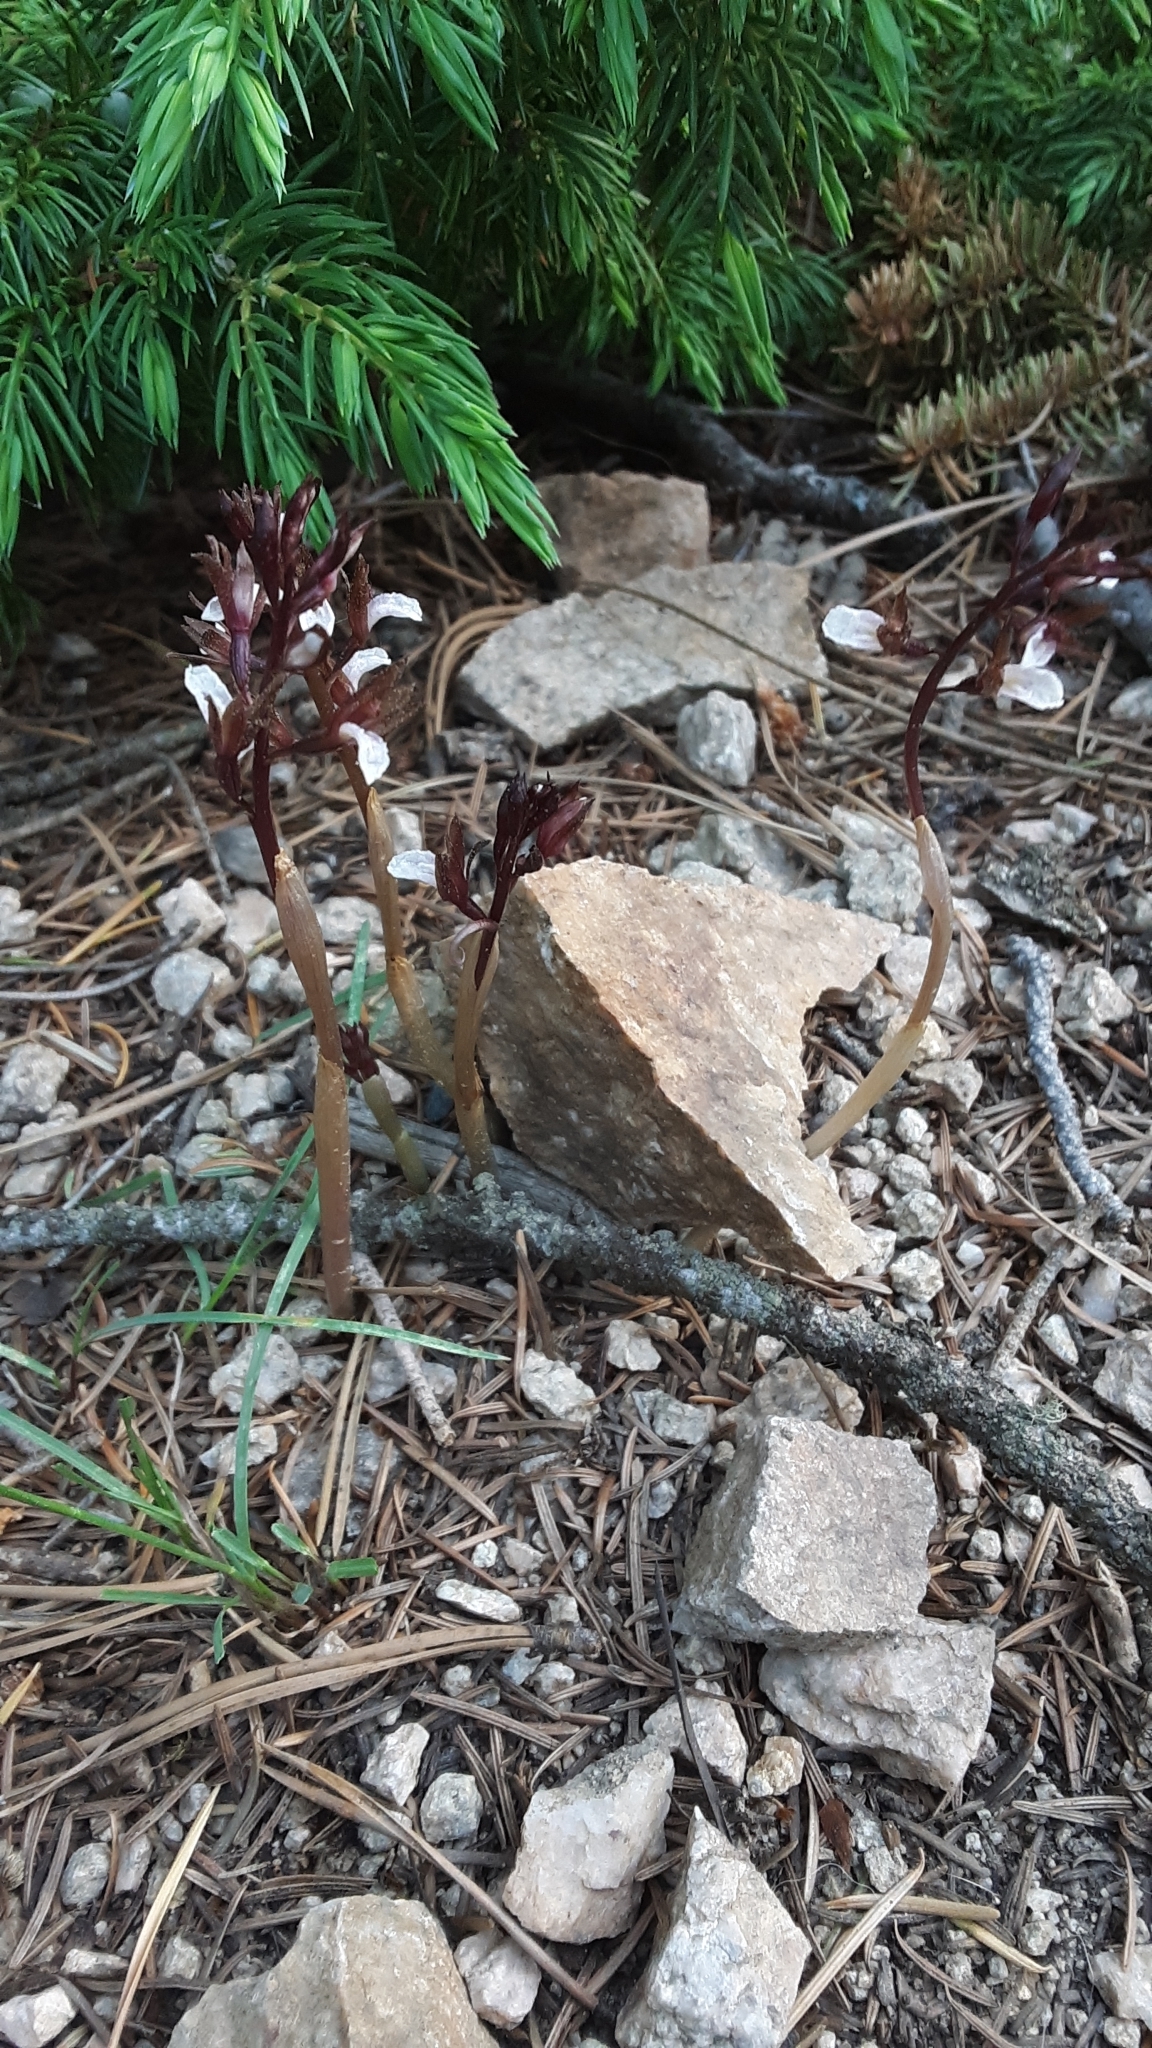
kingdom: Plantae
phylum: Tracheophyta
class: Liliopsida
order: Asparagales
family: Orchidaceae
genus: Corallorhiza
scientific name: Corallorhiza wisteriana
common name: Spring coralroot
